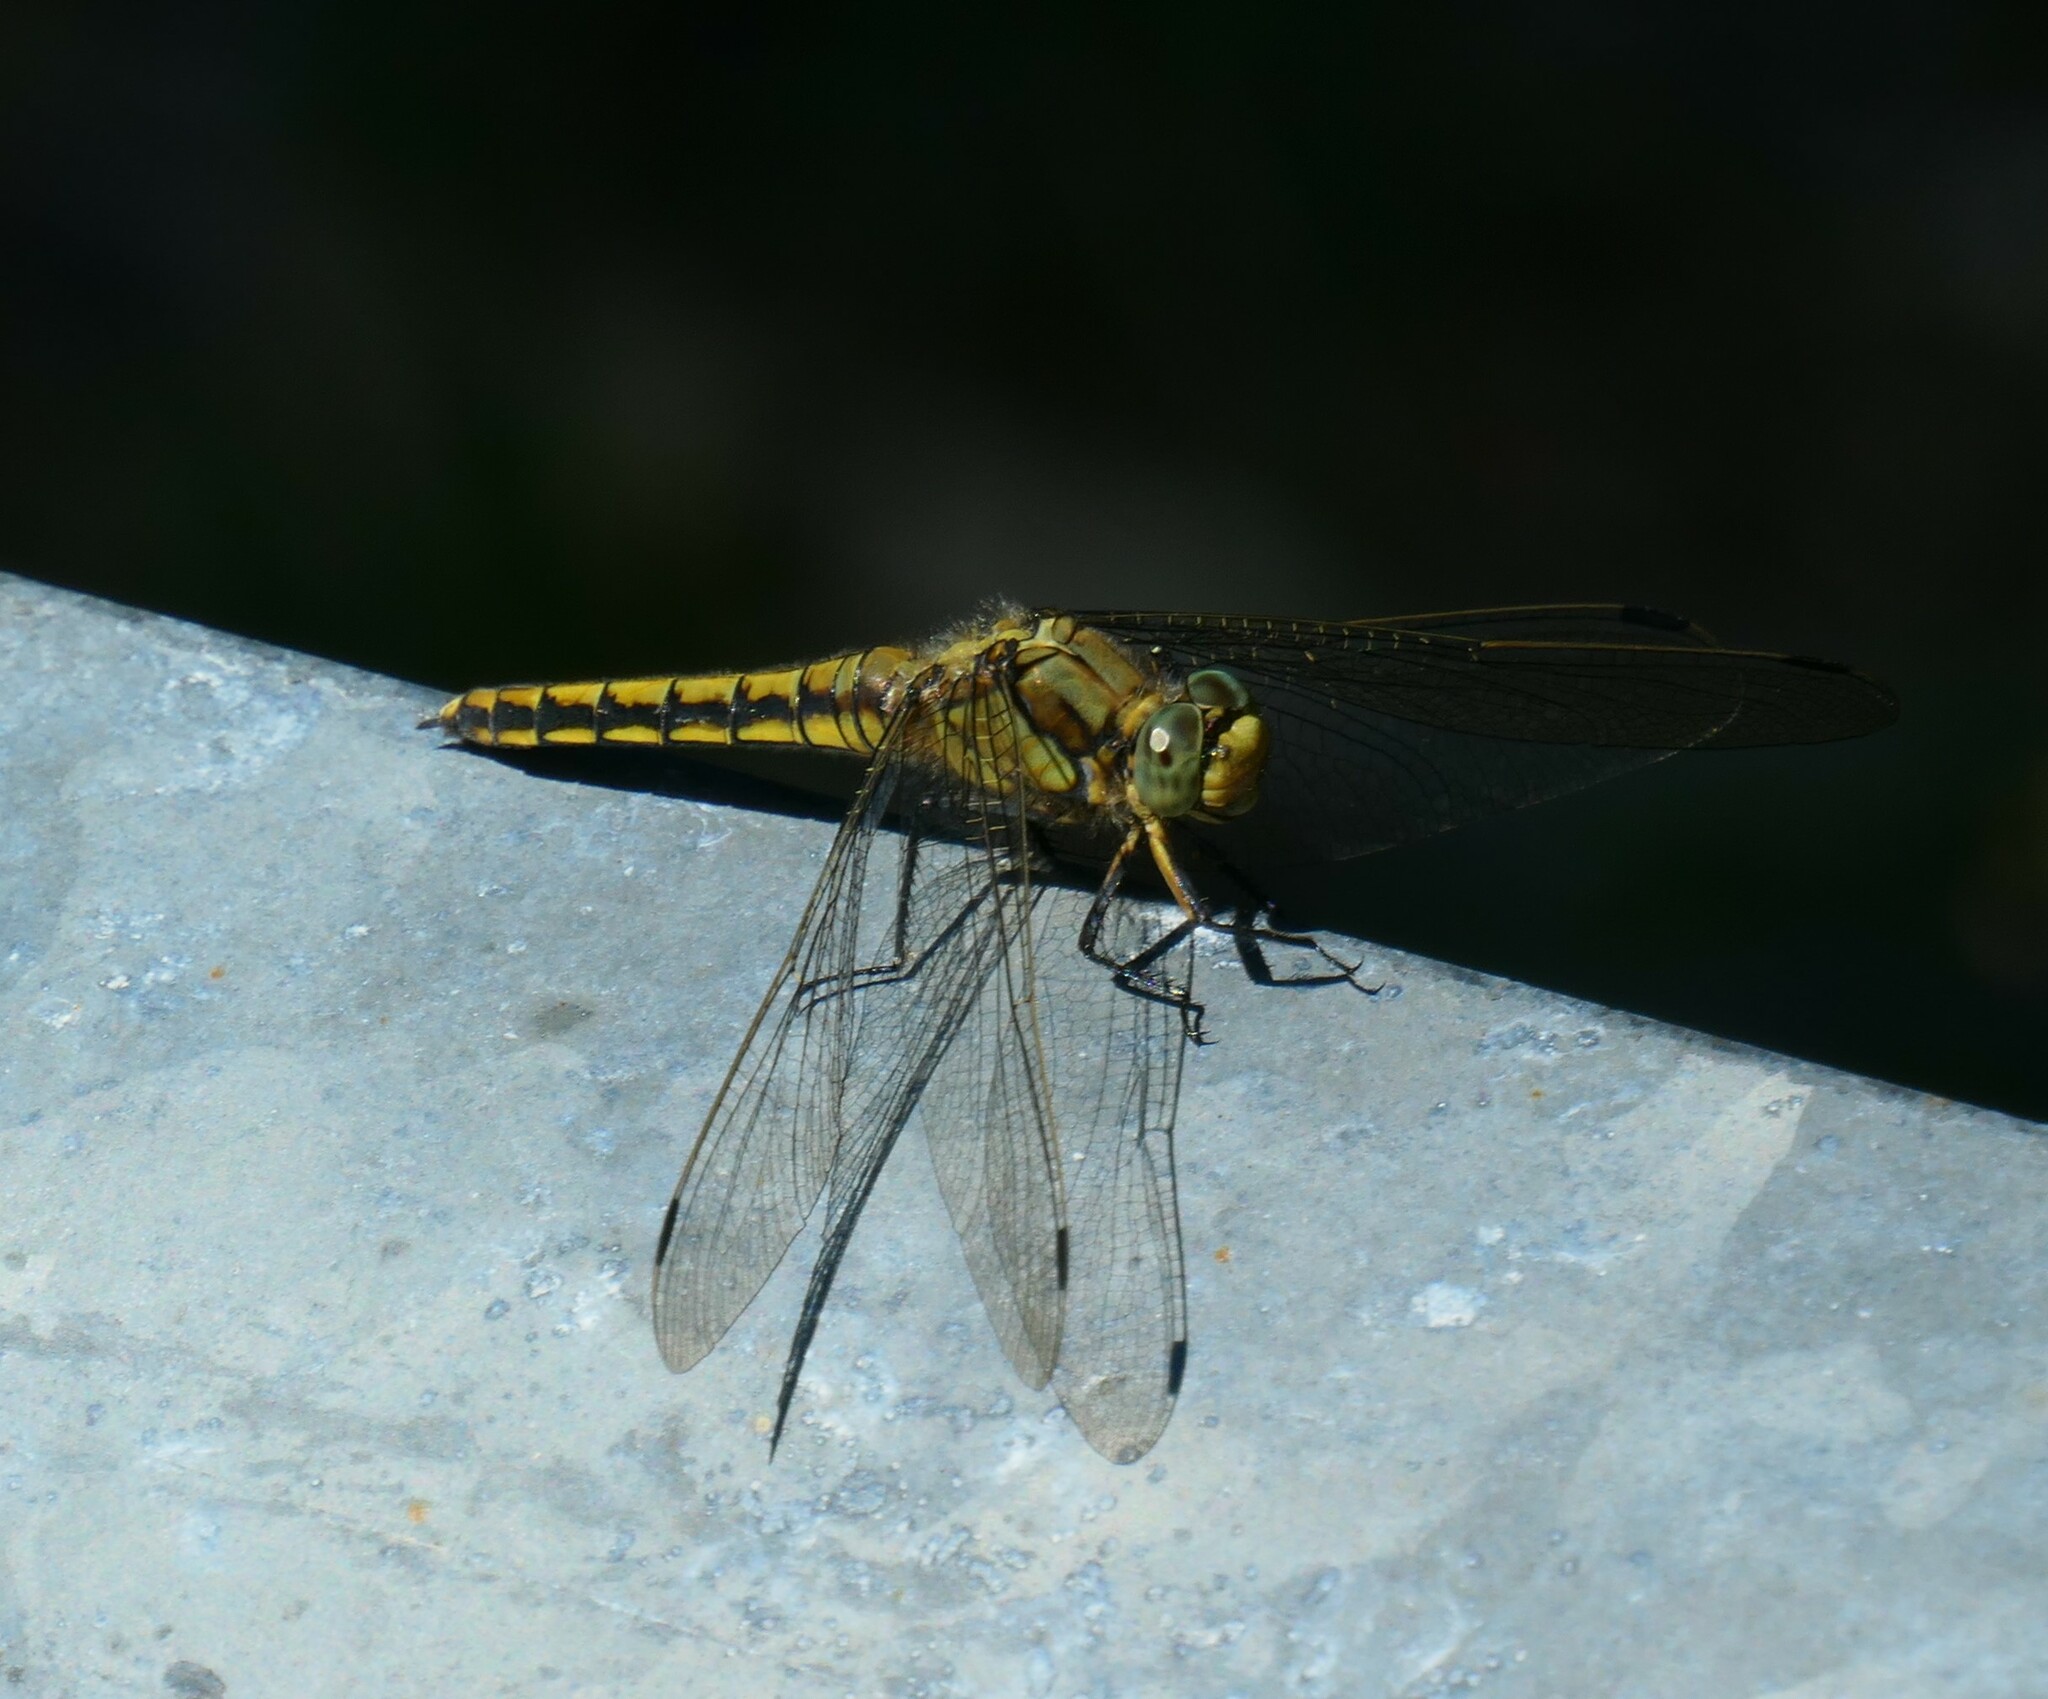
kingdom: Animalia
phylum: Arthropoda
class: Insecta
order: Odonata
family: Libellulidae
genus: Orthetrum
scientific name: Orthetrum cancellatum
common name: Black-tailed skimmer
